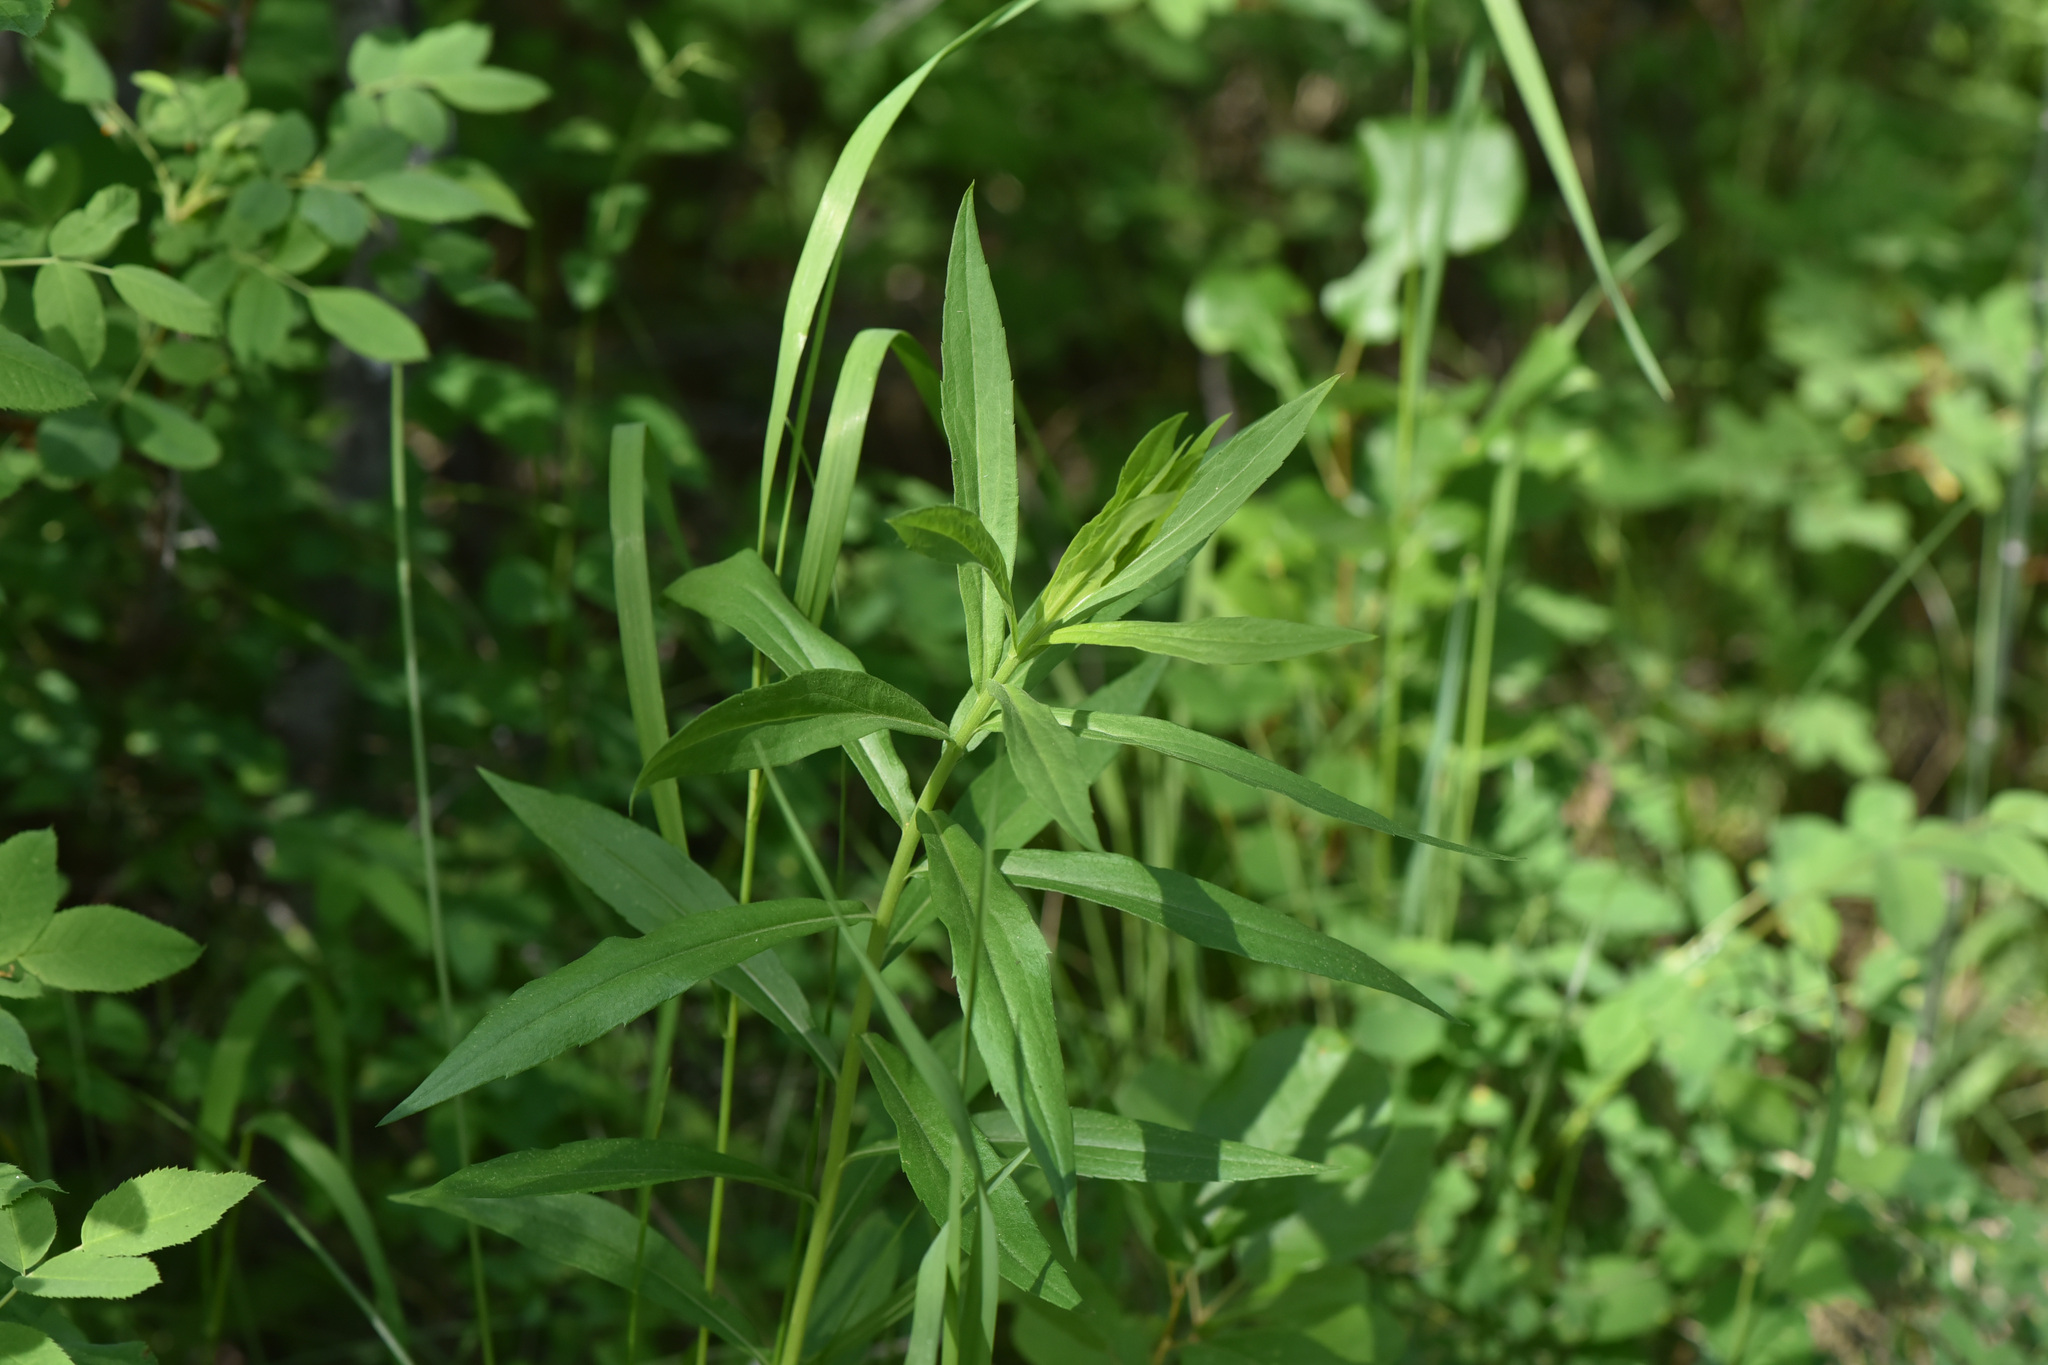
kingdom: Plantae
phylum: Tracheophyta
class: Magnoliopsida
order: Myrtales
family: Onagraceae
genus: Chamaenerion
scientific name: Chamaenerion angustifolium
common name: Fireweed
